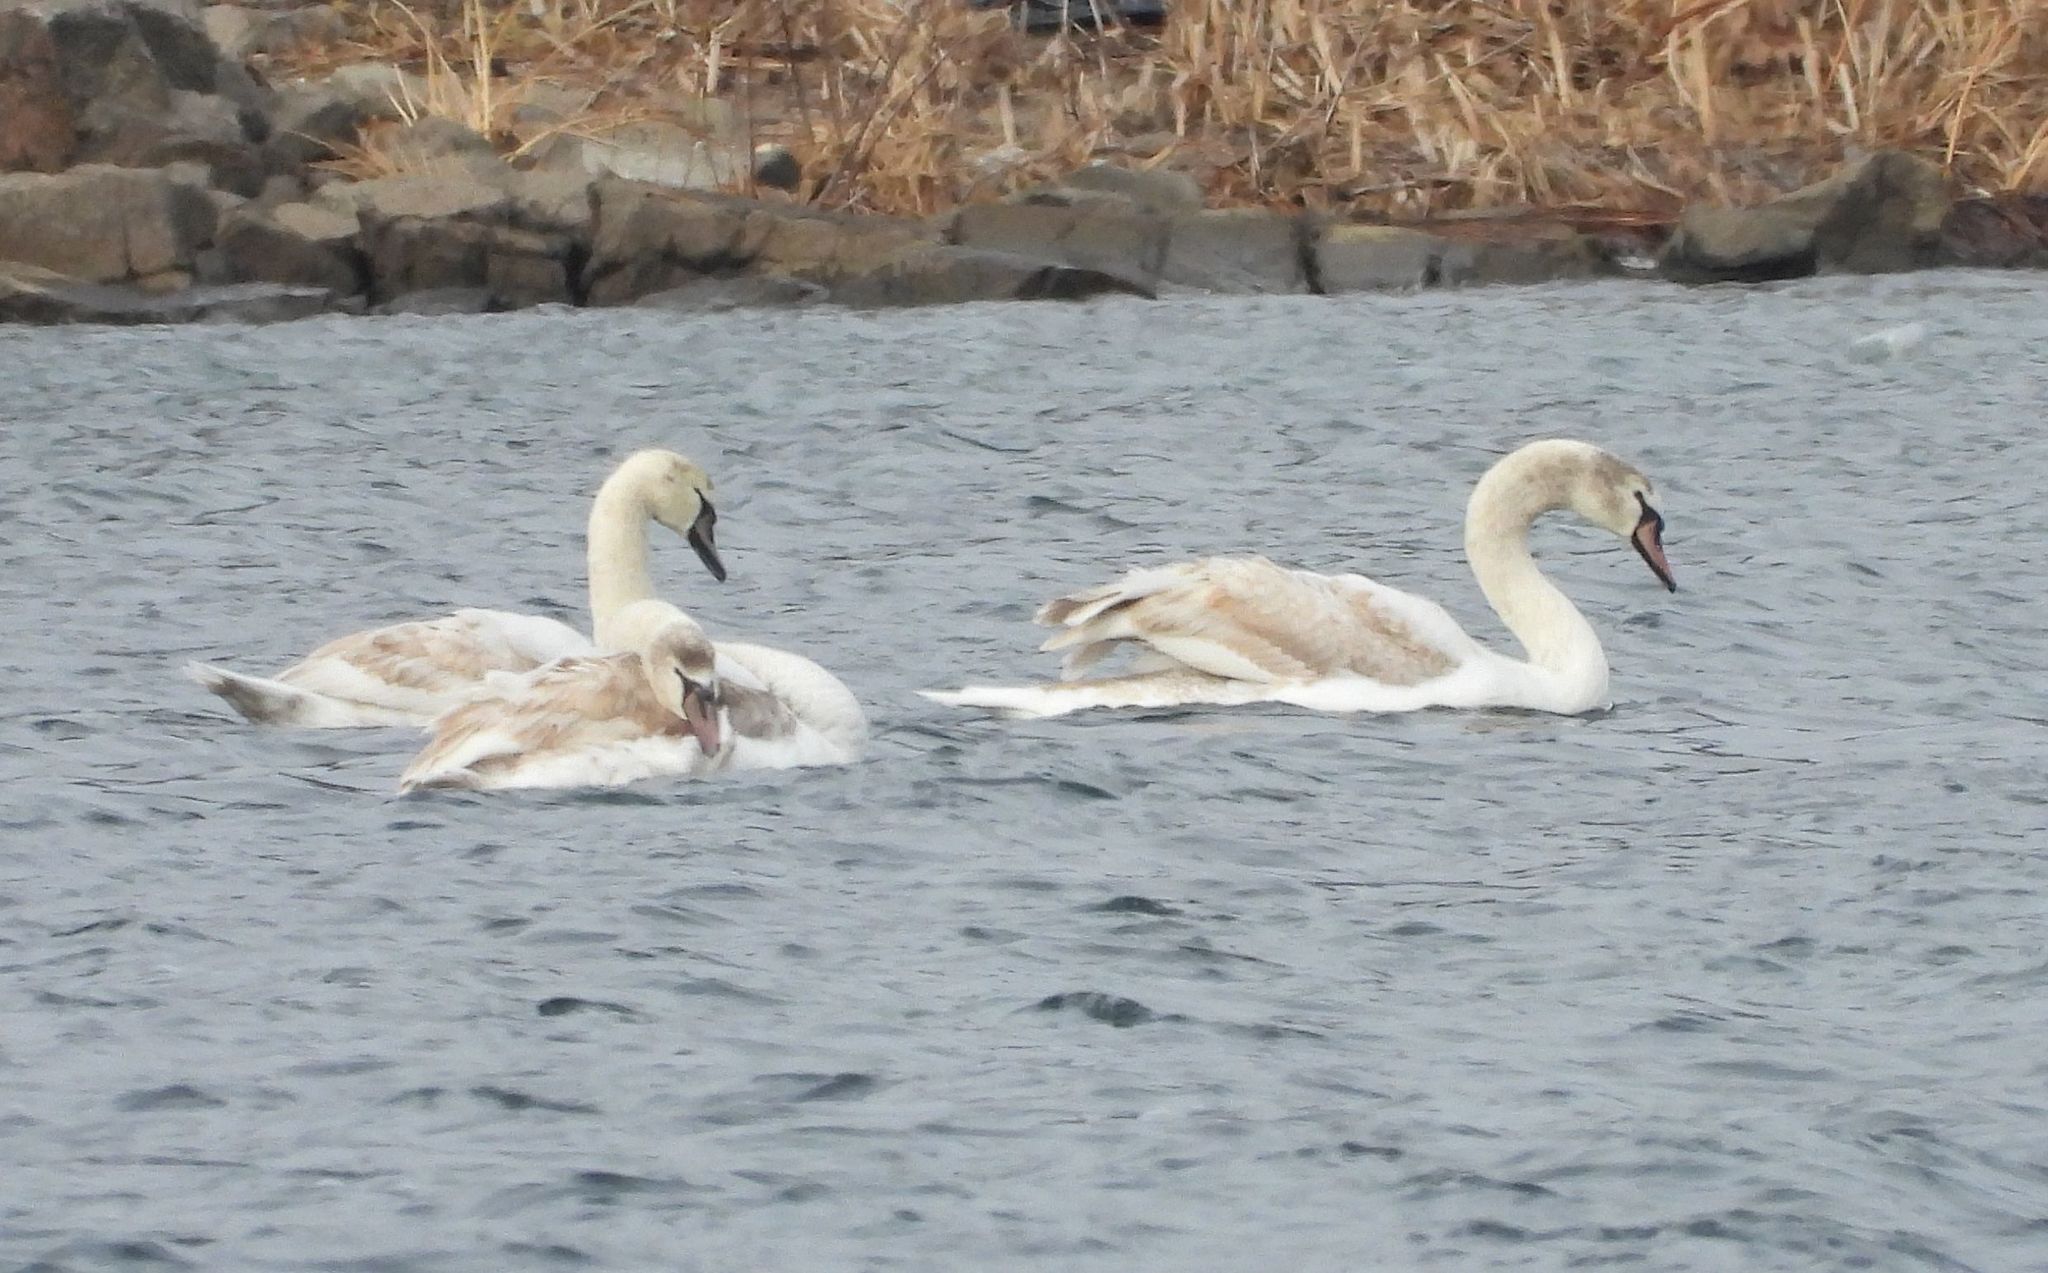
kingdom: Animalia
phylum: Chordata
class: Aves
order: Anseriformes
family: Anatidae
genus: Cygnus
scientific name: Cygnus olor
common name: Mute swan
